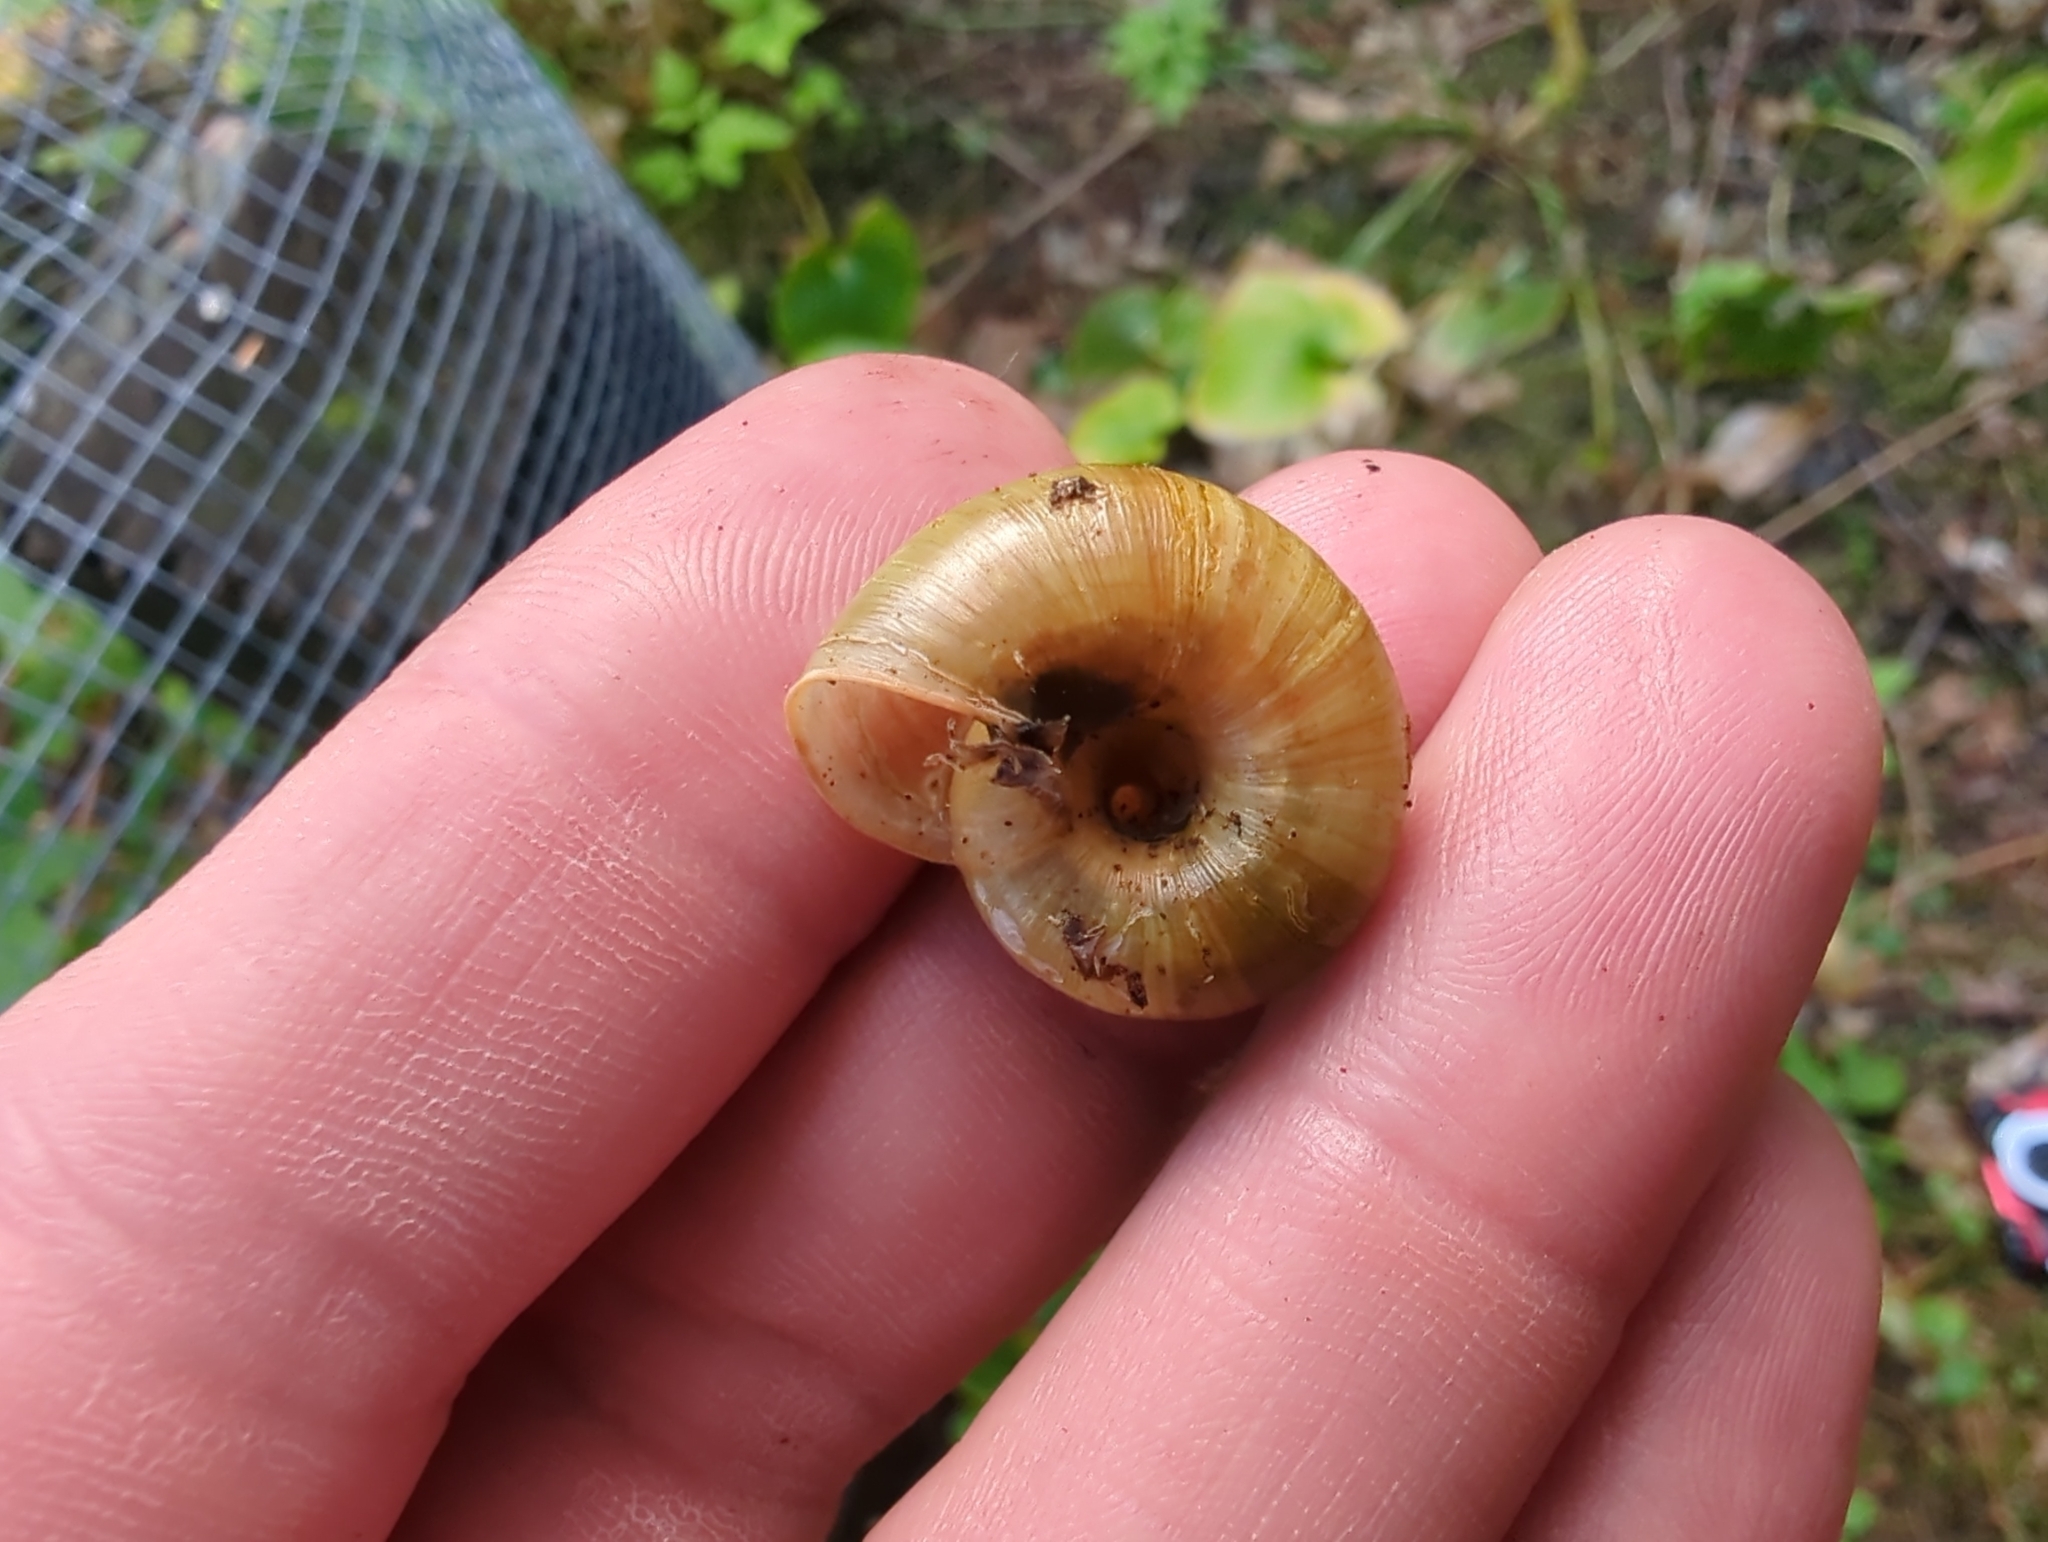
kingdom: Animalia
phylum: Mollusca
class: Gastropoda
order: Stylommatophora
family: Haplotrematidae
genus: Haplotrema
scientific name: Haplotrema vancouverense
